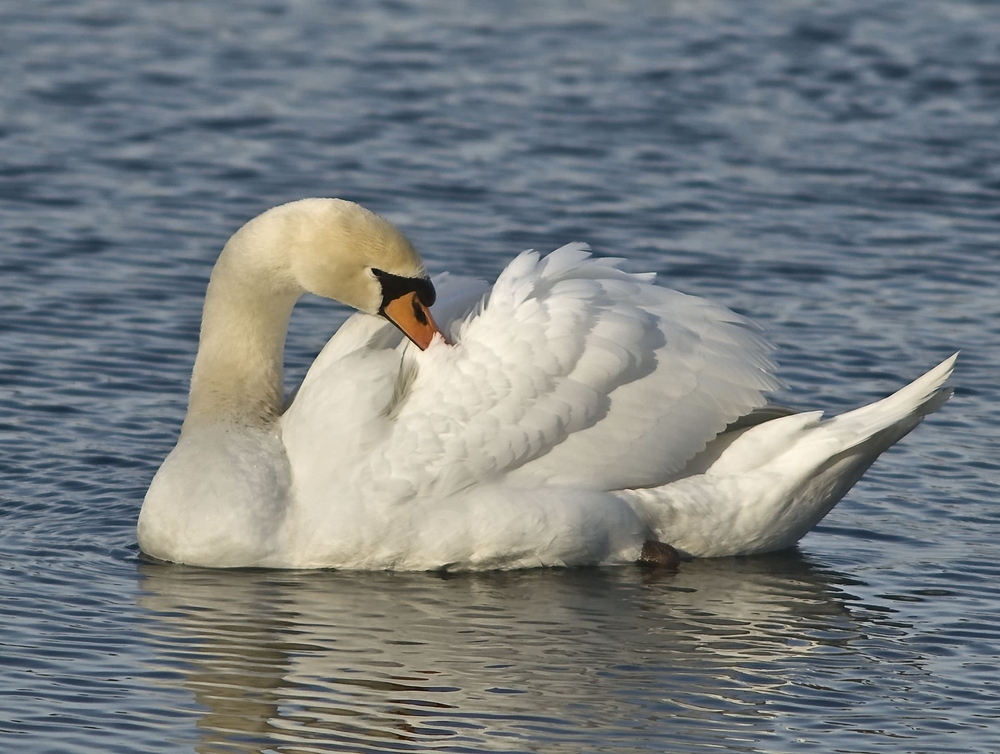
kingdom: Animalia
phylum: Chordata
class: Aves
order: Anseriformes
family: Anatidae
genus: Cygnus
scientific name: Cygnus olor
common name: Mute swan
